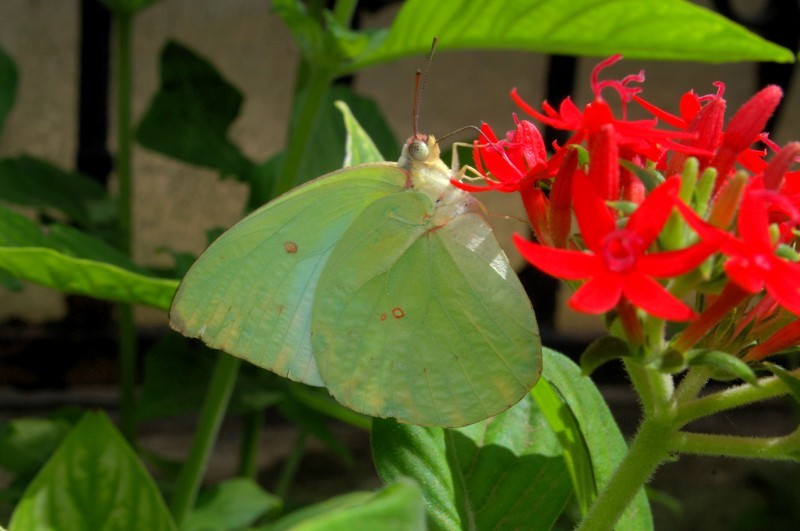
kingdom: Animalia
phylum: Arthropoda
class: Insecta
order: Lepidoptera
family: Pieridae
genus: Catopsilia
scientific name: Catopsilia pomona
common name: Common emigrant
